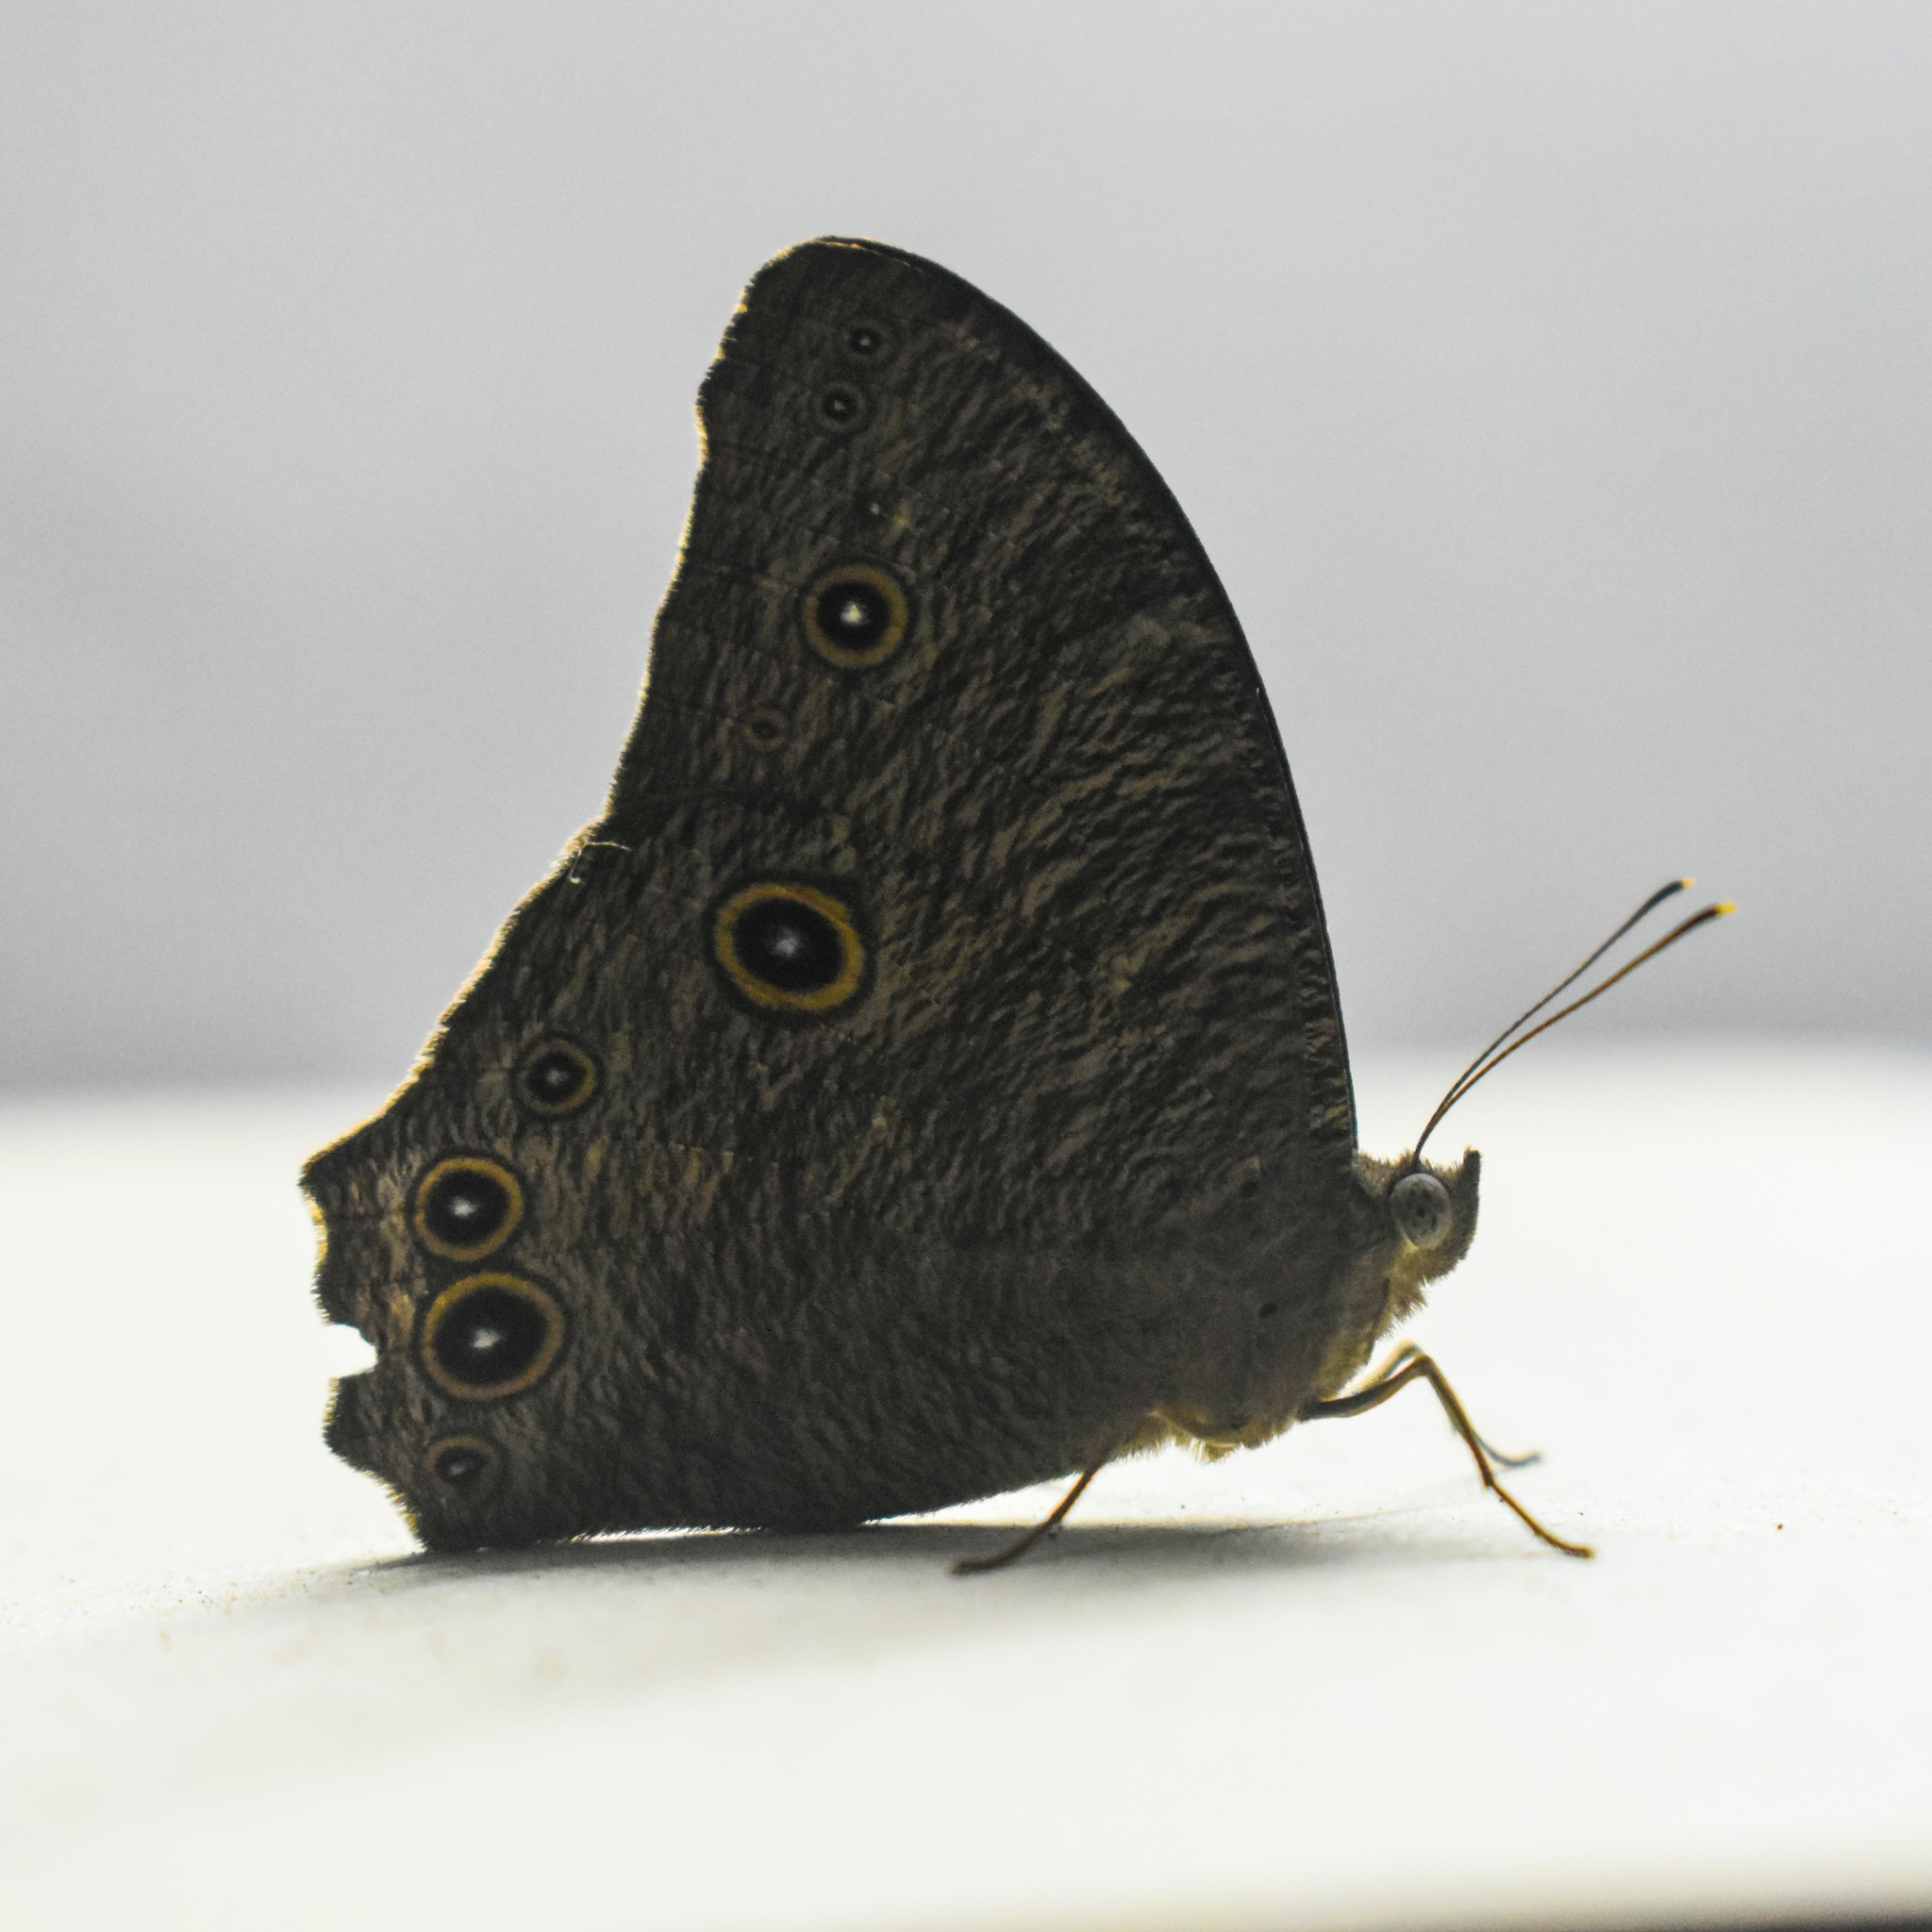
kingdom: Animalia
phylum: Arthropoda
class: Insecta
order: Lepidoptera
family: Nymphalidae
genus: Melanitis
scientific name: Melanitis leda
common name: Twilight brown
